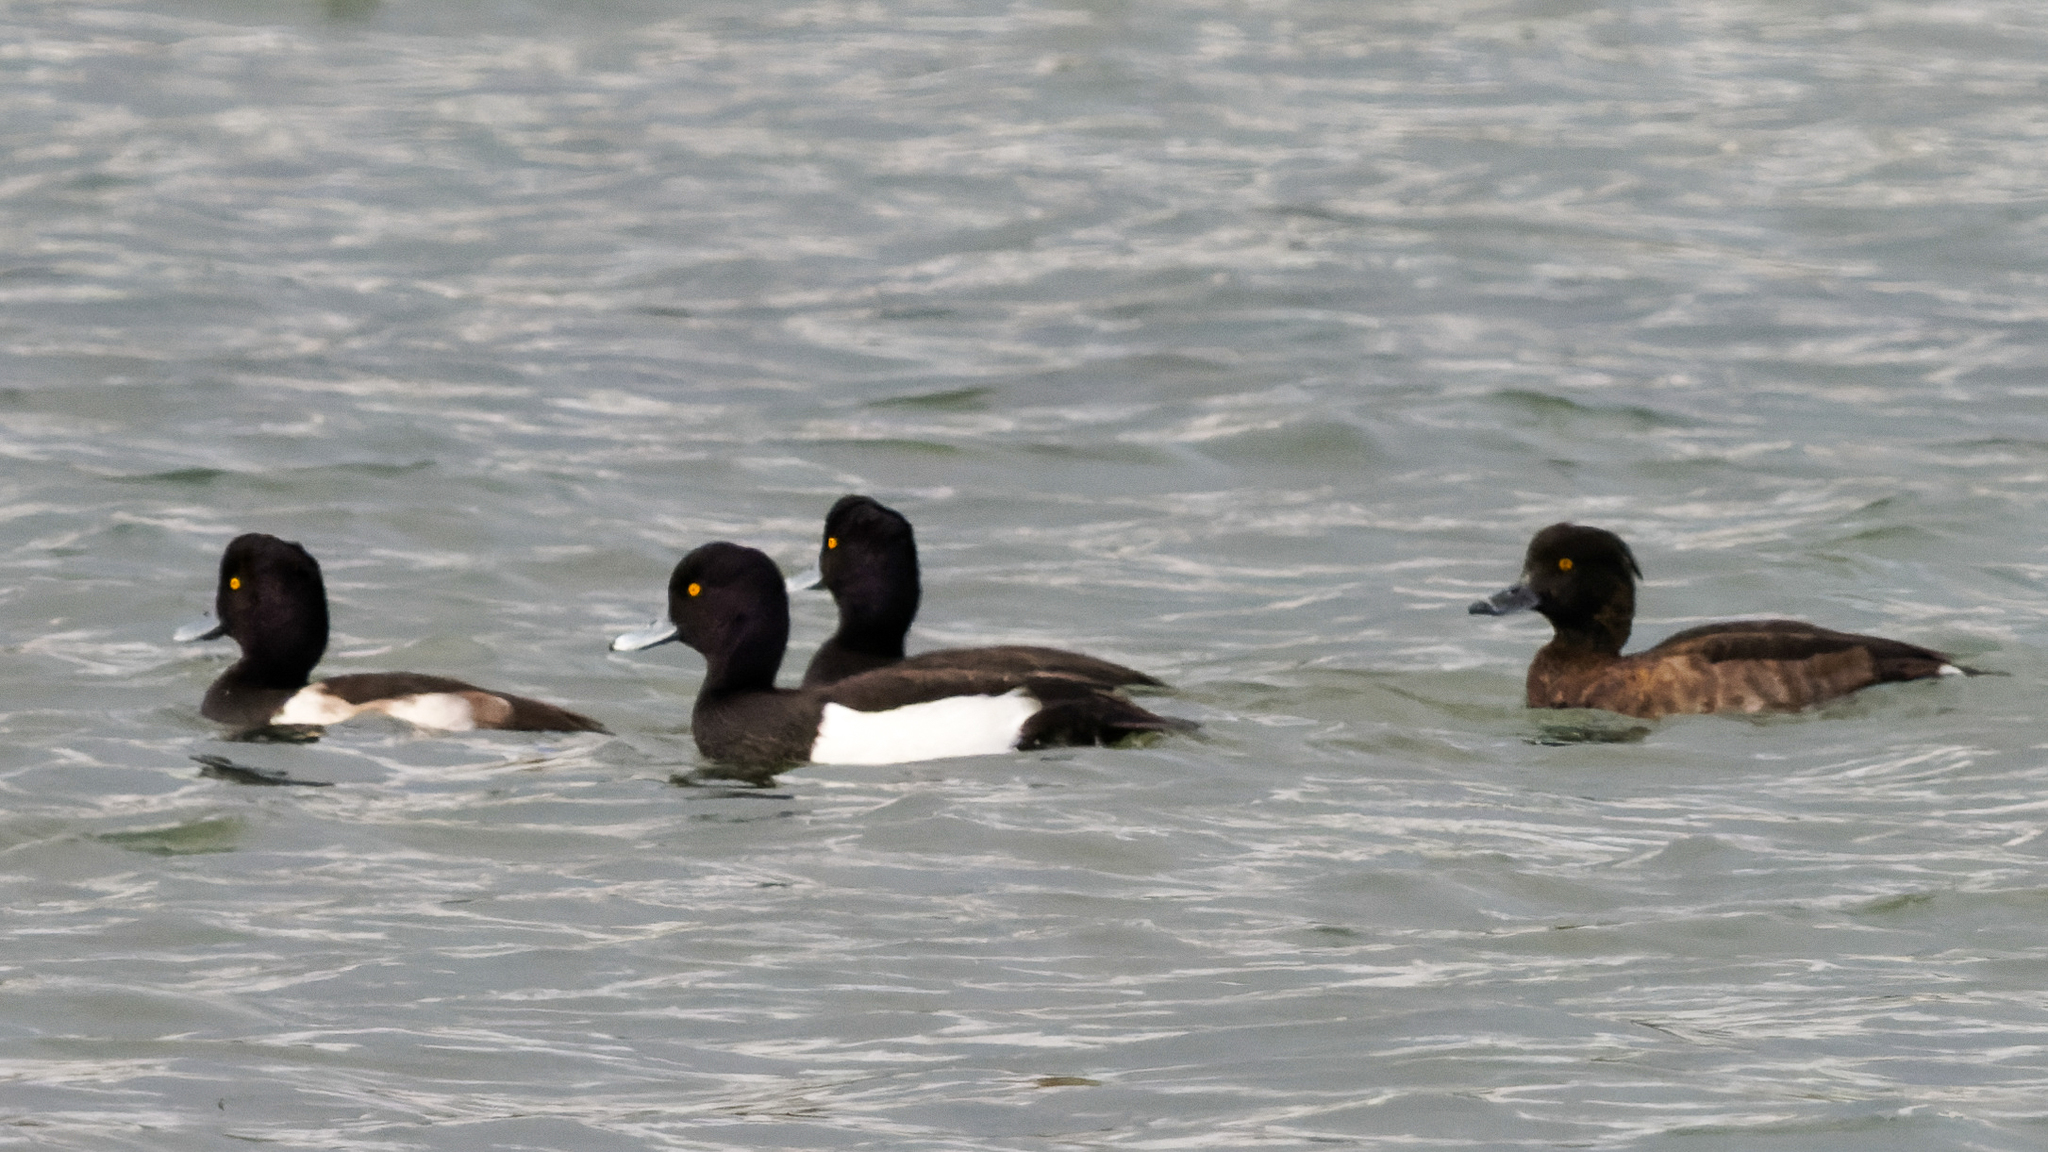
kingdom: Animalia
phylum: Chordata
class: Aves
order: Anseriformes
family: Anatidae
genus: Aythya
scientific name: Aythya fuligula
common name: Tufted duck
